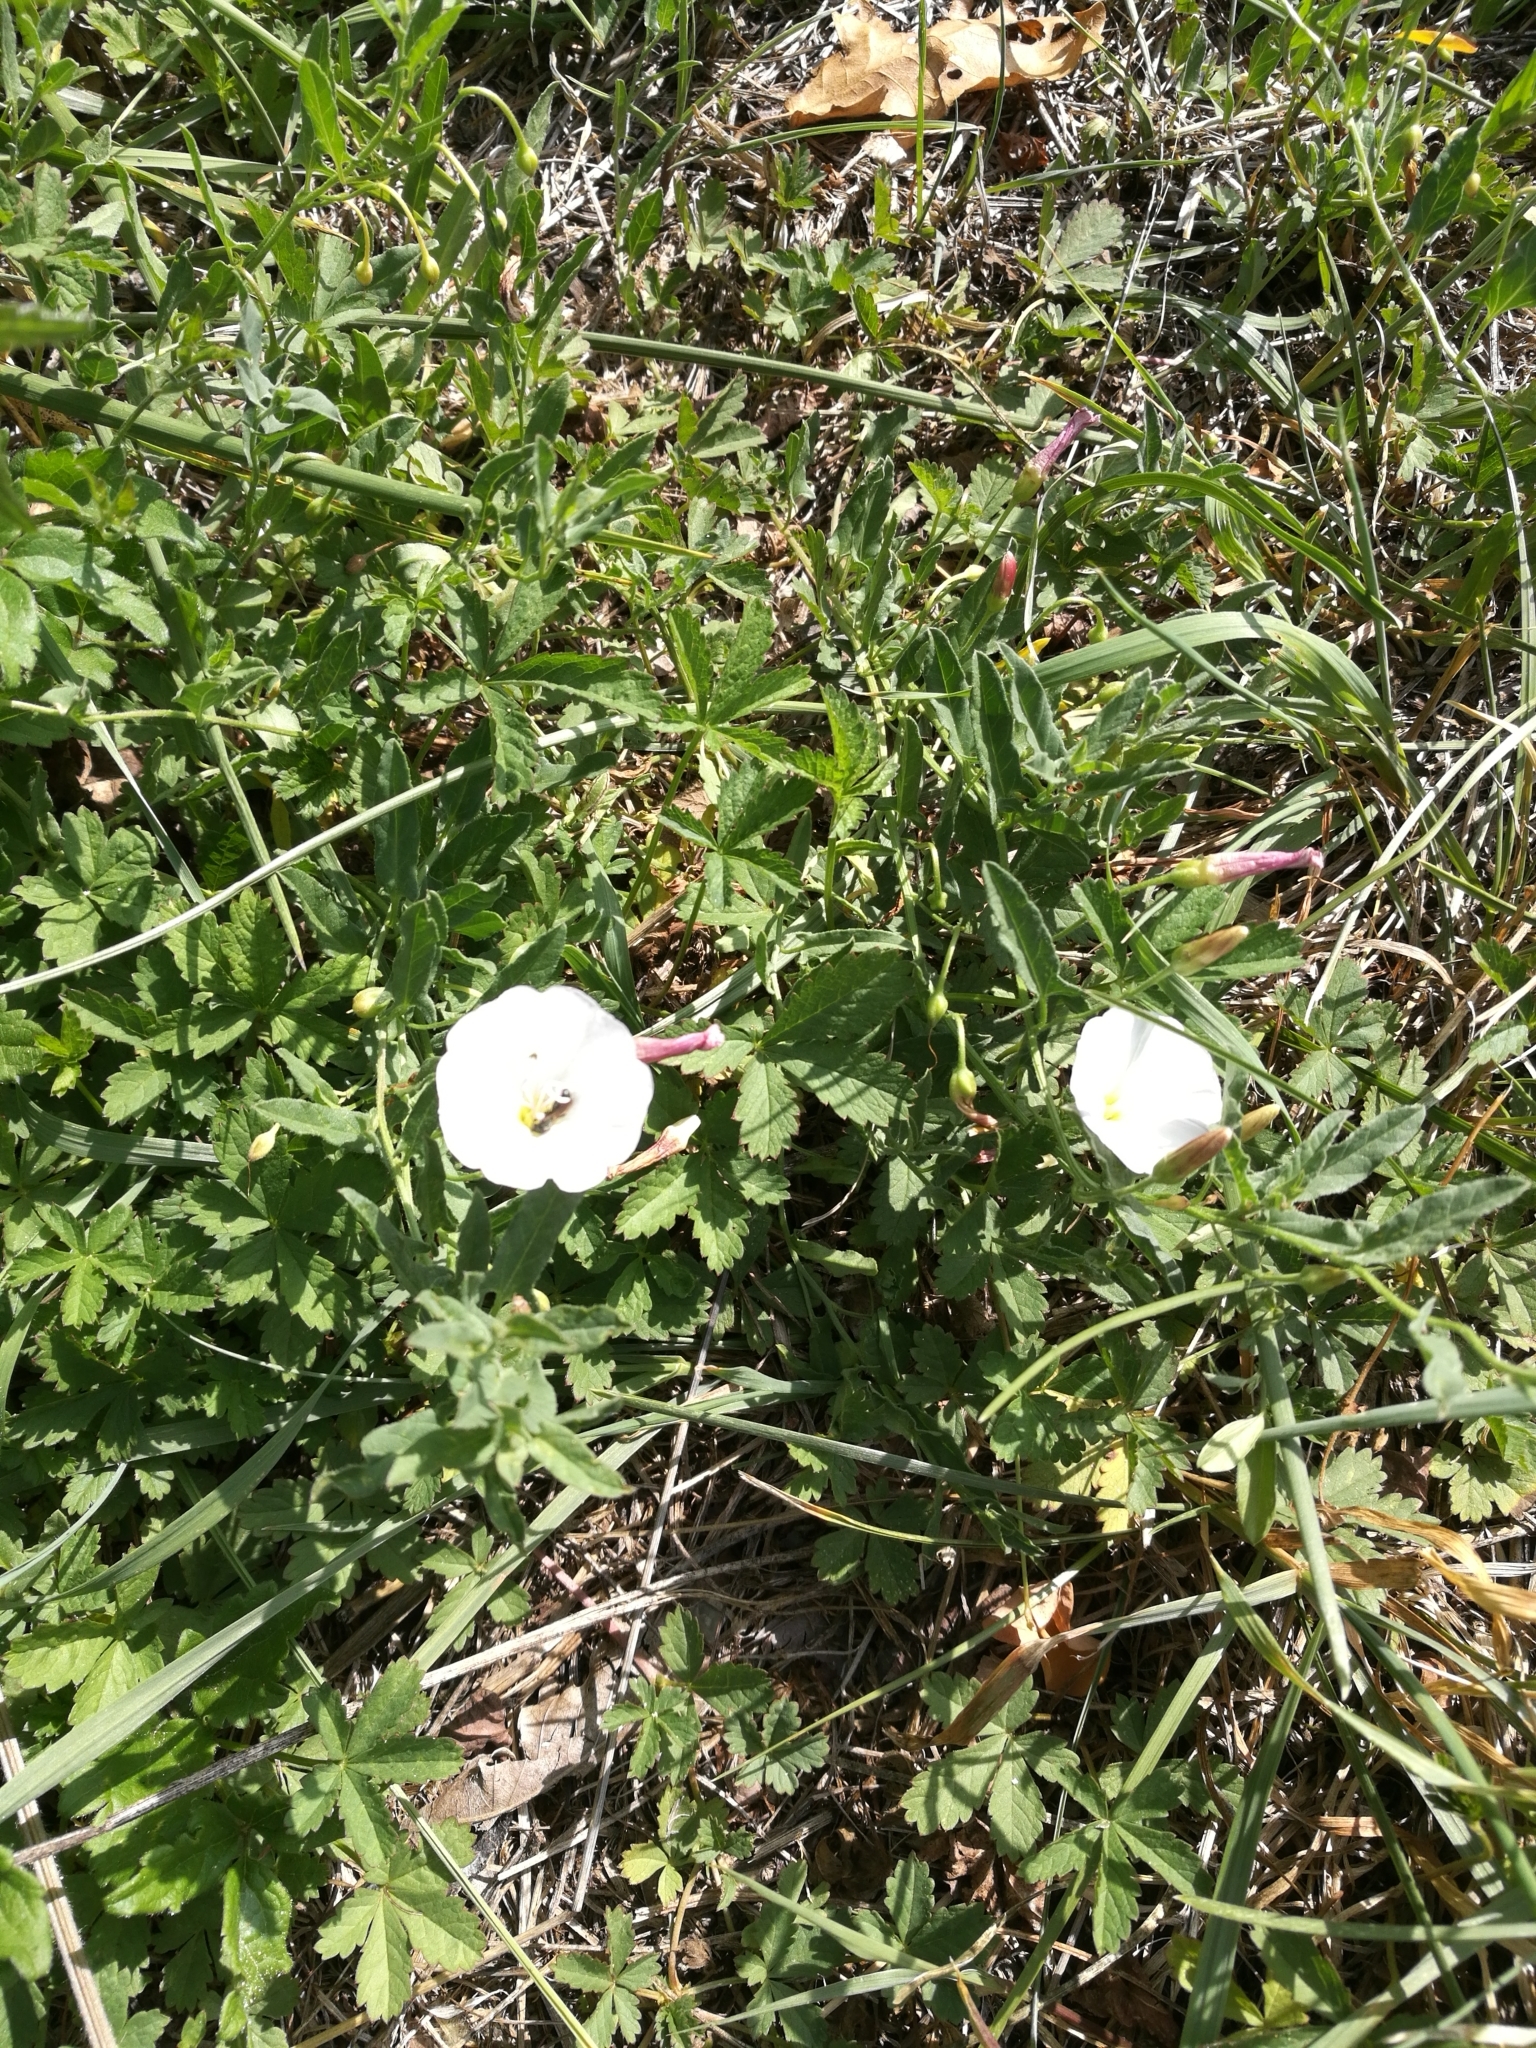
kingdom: Plantae
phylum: Tracheophyta
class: Magnoliopsida
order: Solanales
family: Convolvulaceae
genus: Convolvulus
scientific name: Convolvulus arvensis
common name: Field bindweed
